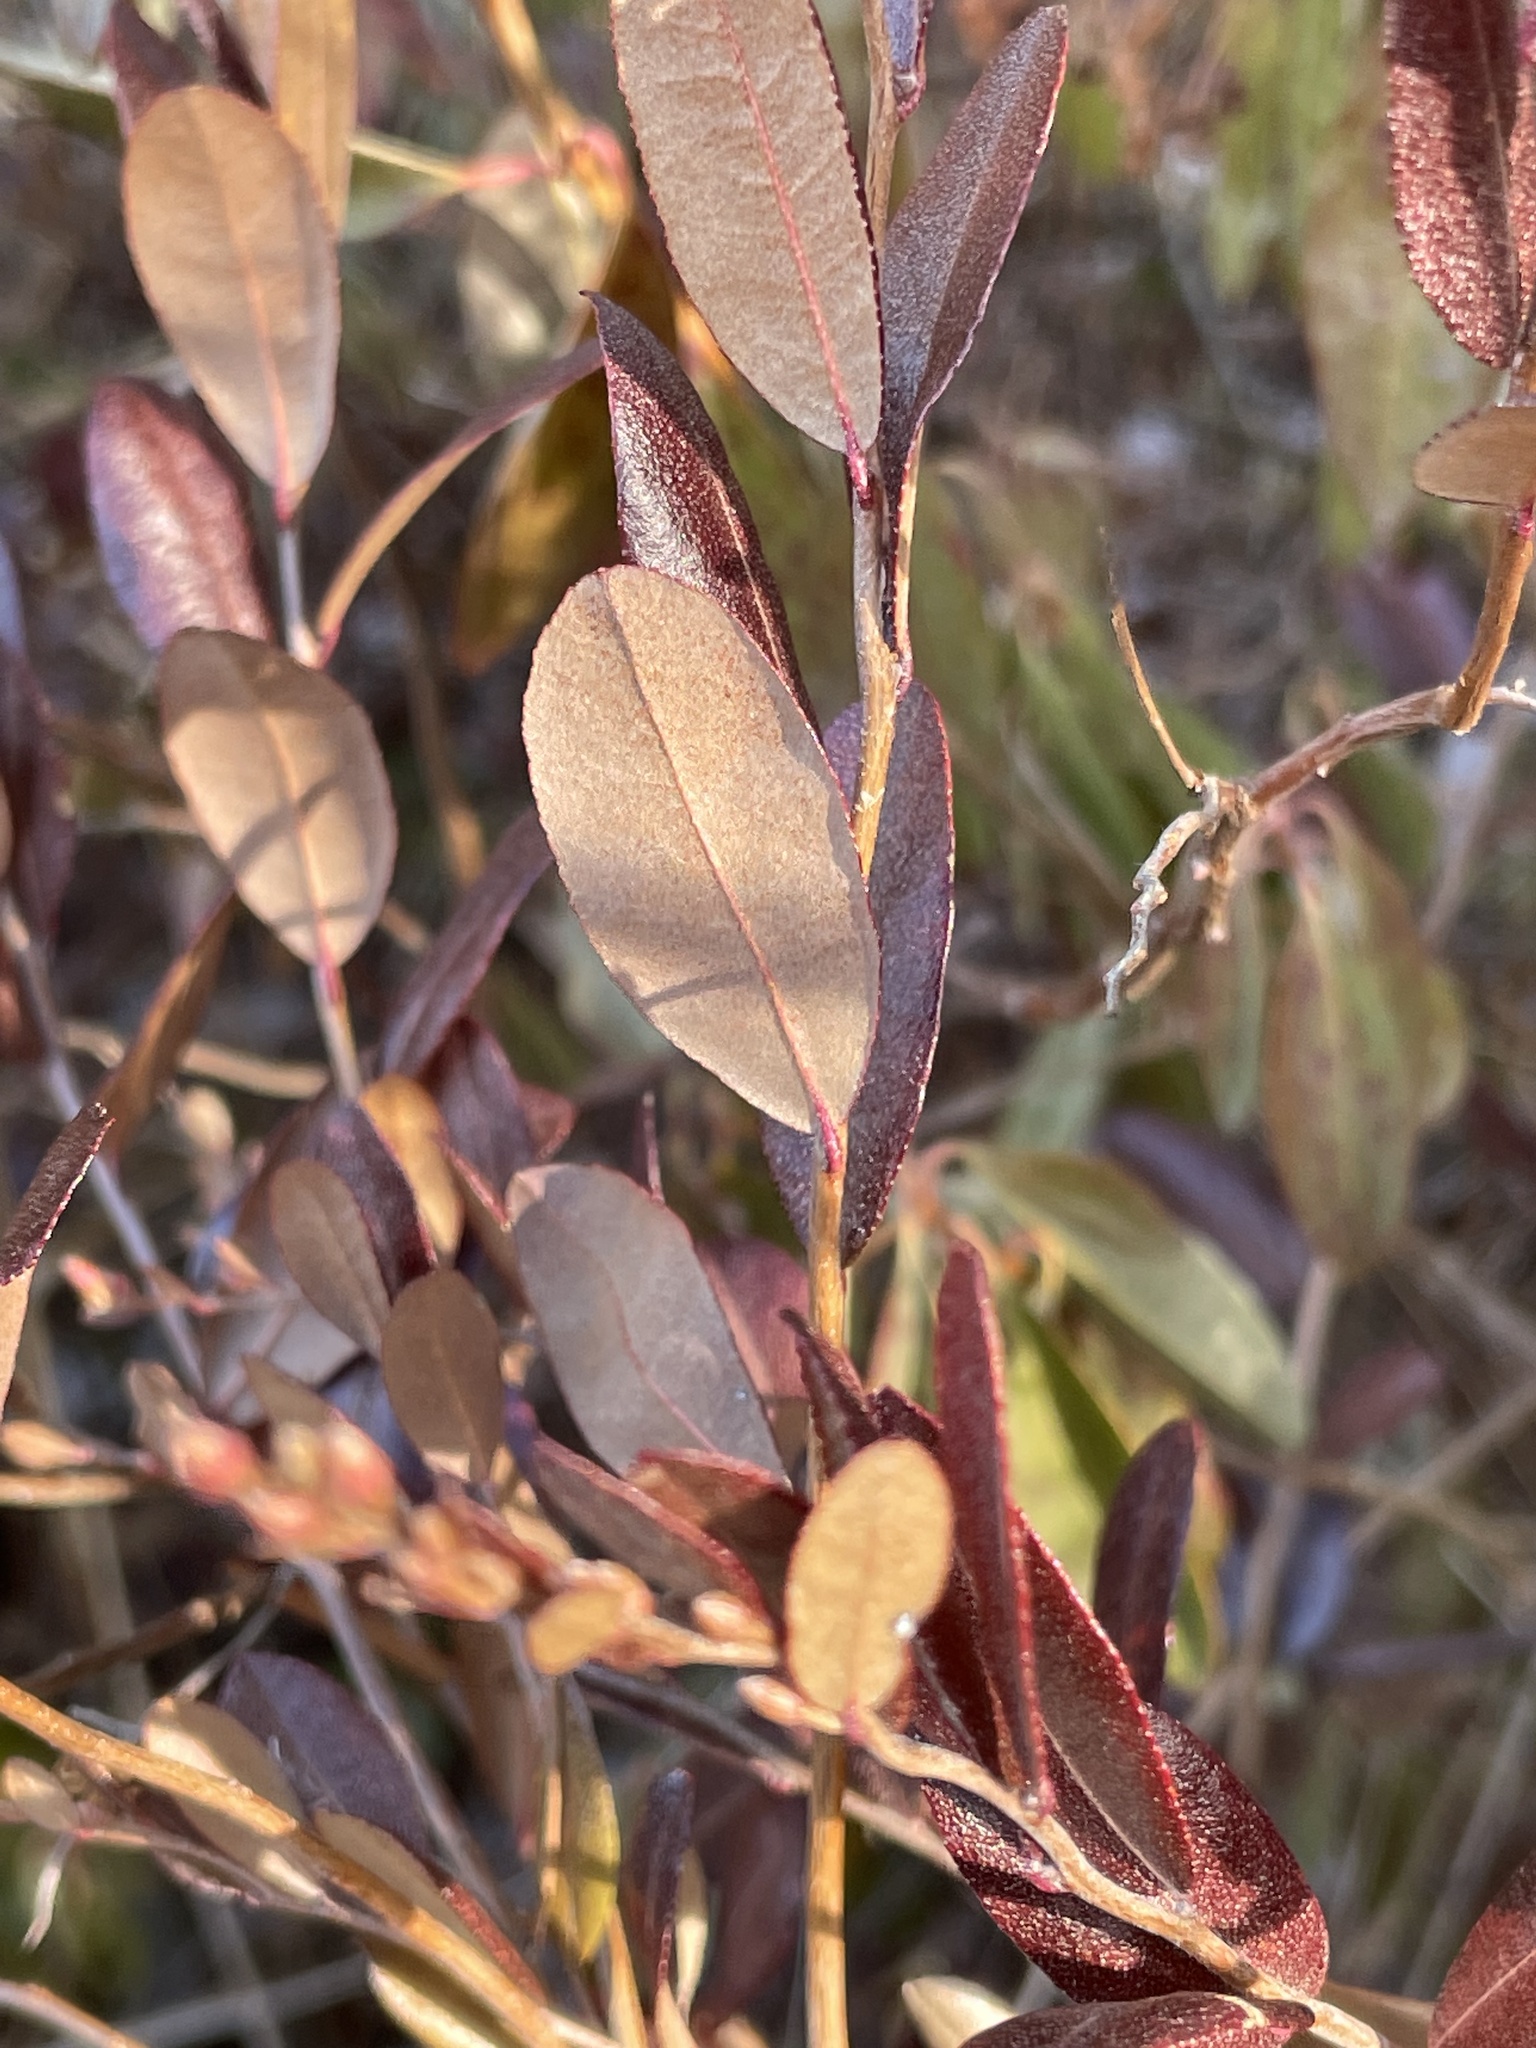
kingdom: Plantae
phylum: Tracheophyta
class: Magnoliopsida
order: Ericales
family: Ericaceae
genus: Chamaedaphne
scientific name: Chamaedaphne calyculata
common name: Leatherleaf
